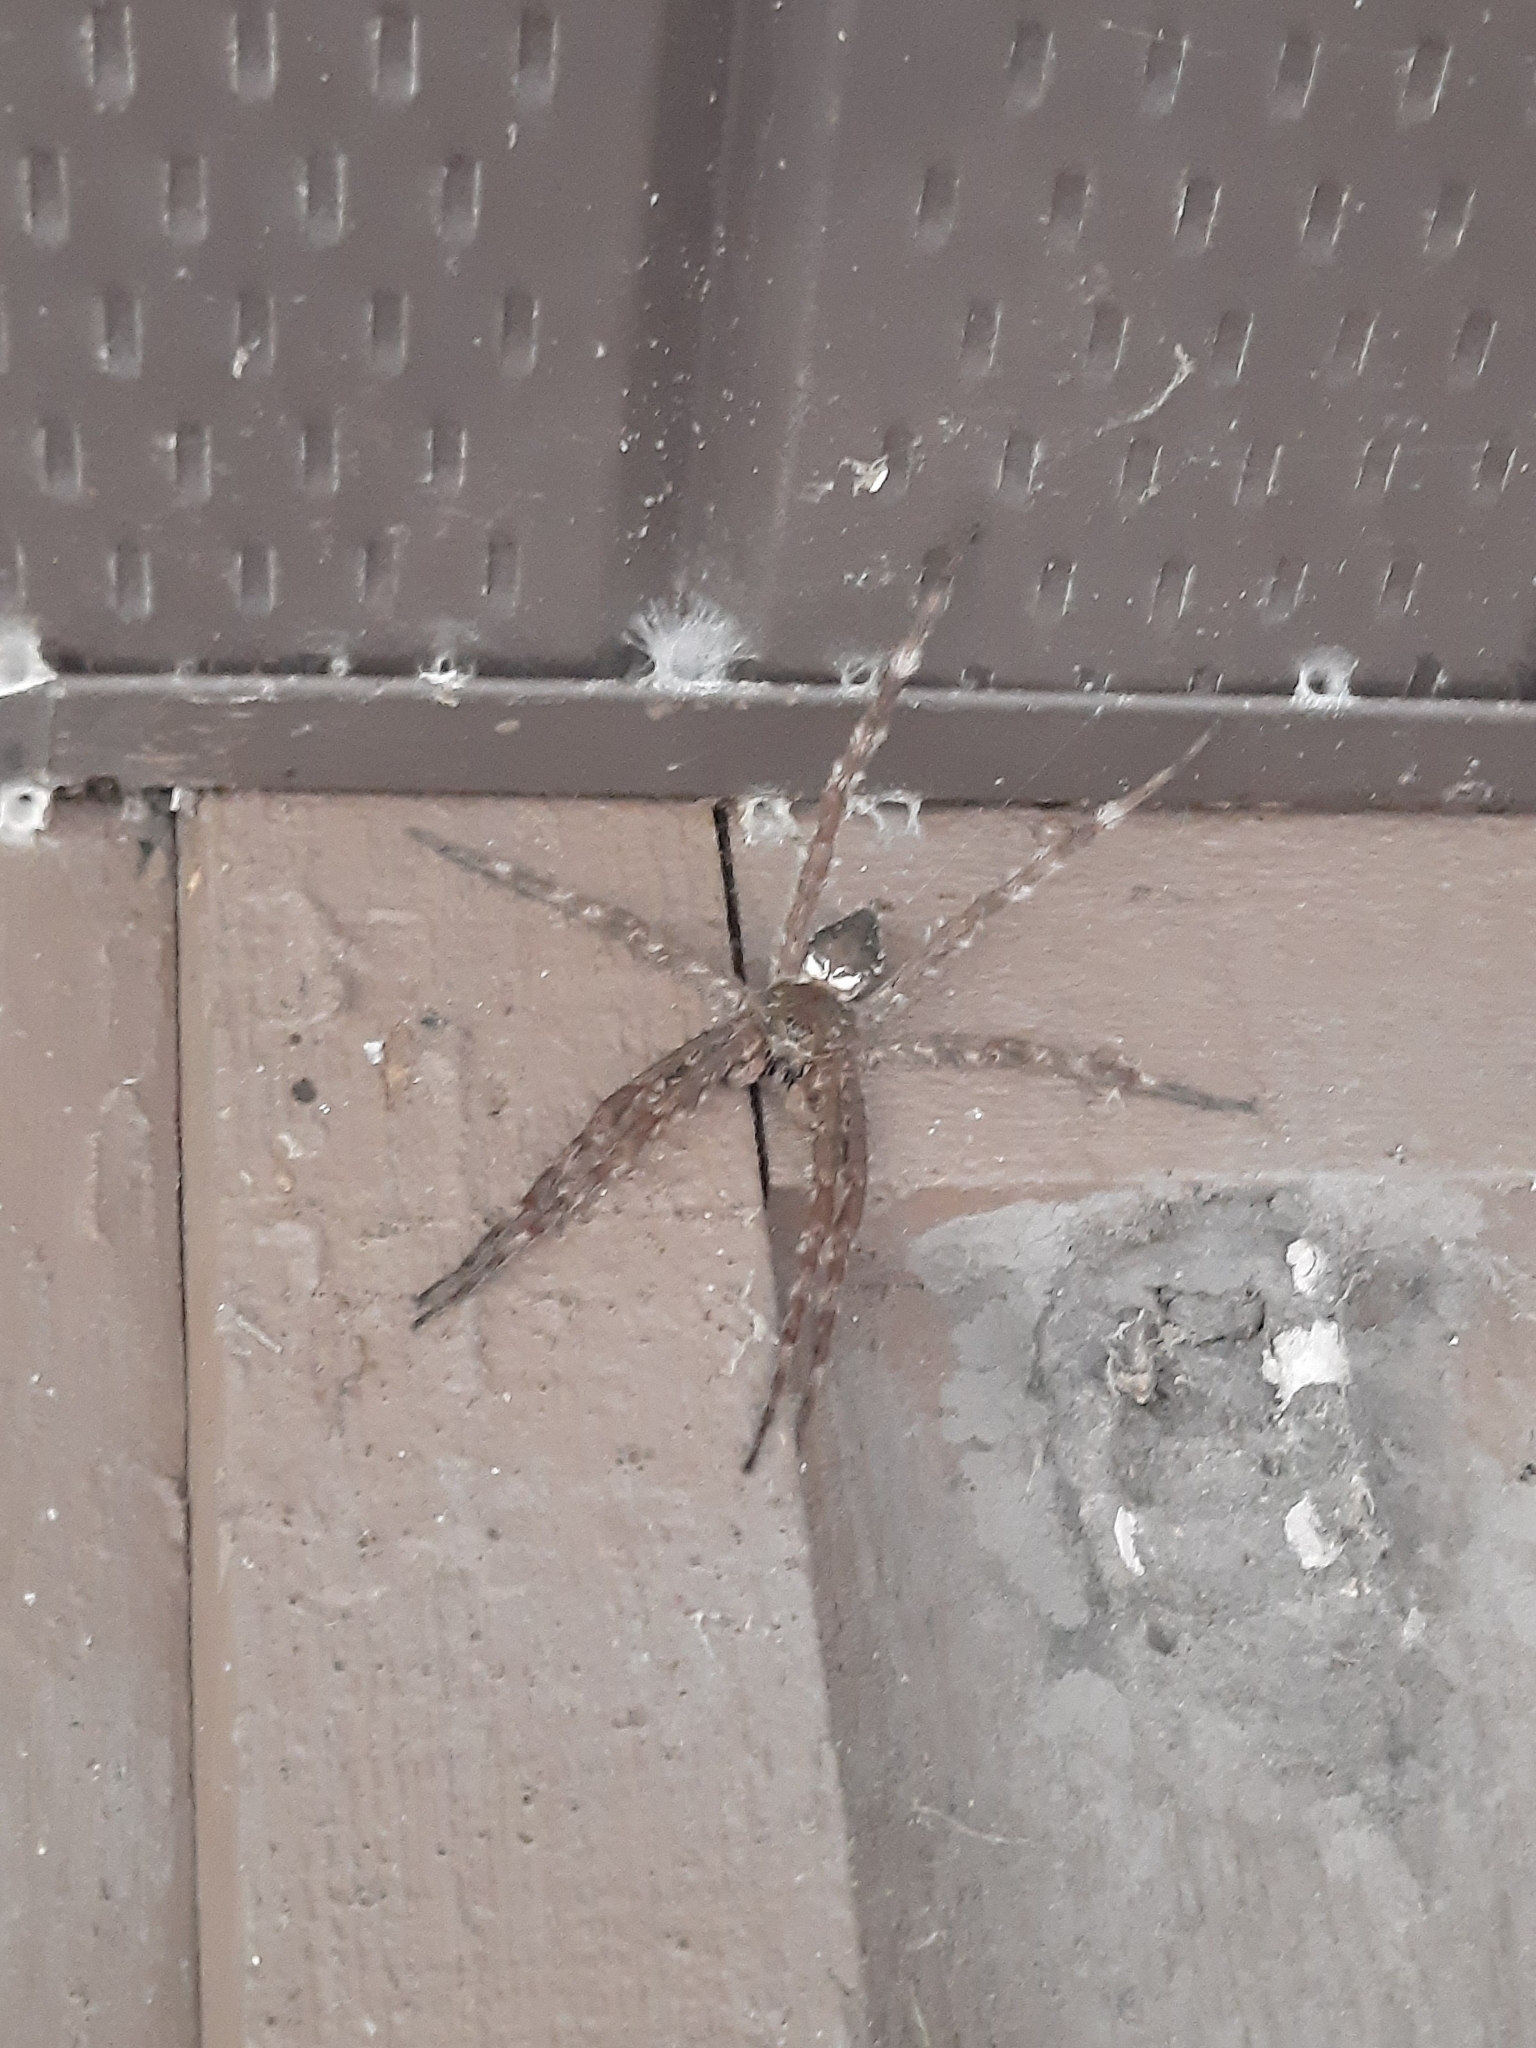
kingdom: Animalia
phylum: Arthropoda
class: Arachnida
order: Araneae
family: Pisauridae
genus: Dolomedes
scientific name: Dolomedes albineus
